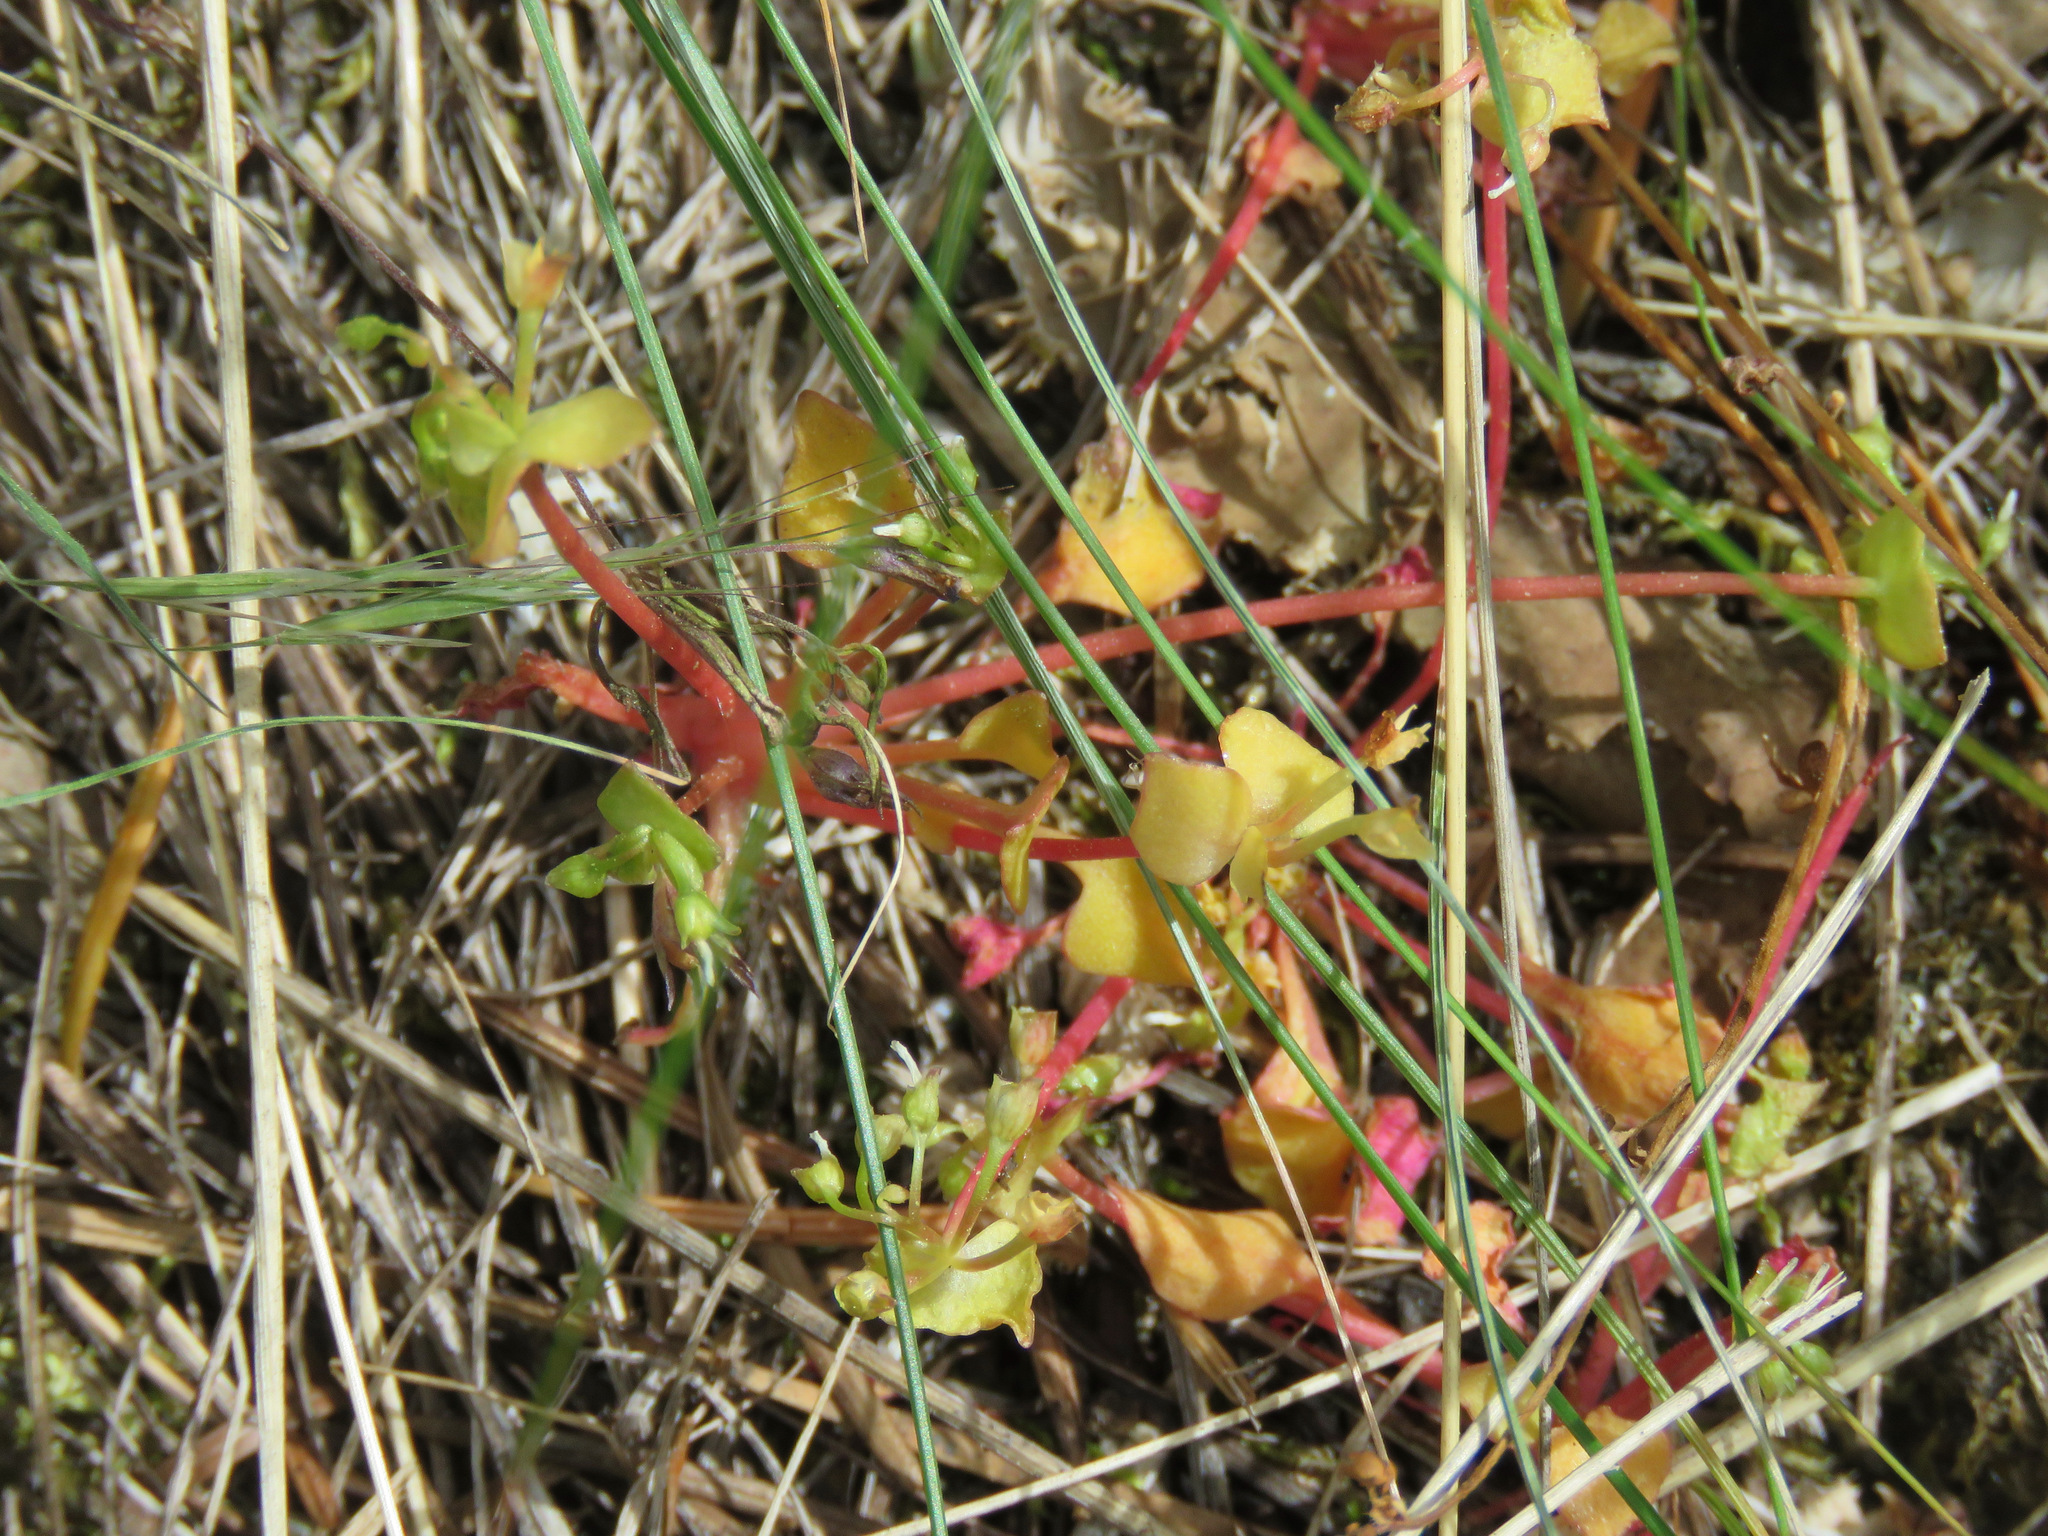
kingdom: Plantae
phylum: Tracheophyta
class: Magnoliopsida
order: Caryophyllales
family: Montiaceae
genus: Claytonia
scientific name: Claytonia rubra
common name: Erubescent miner's-lettuce
